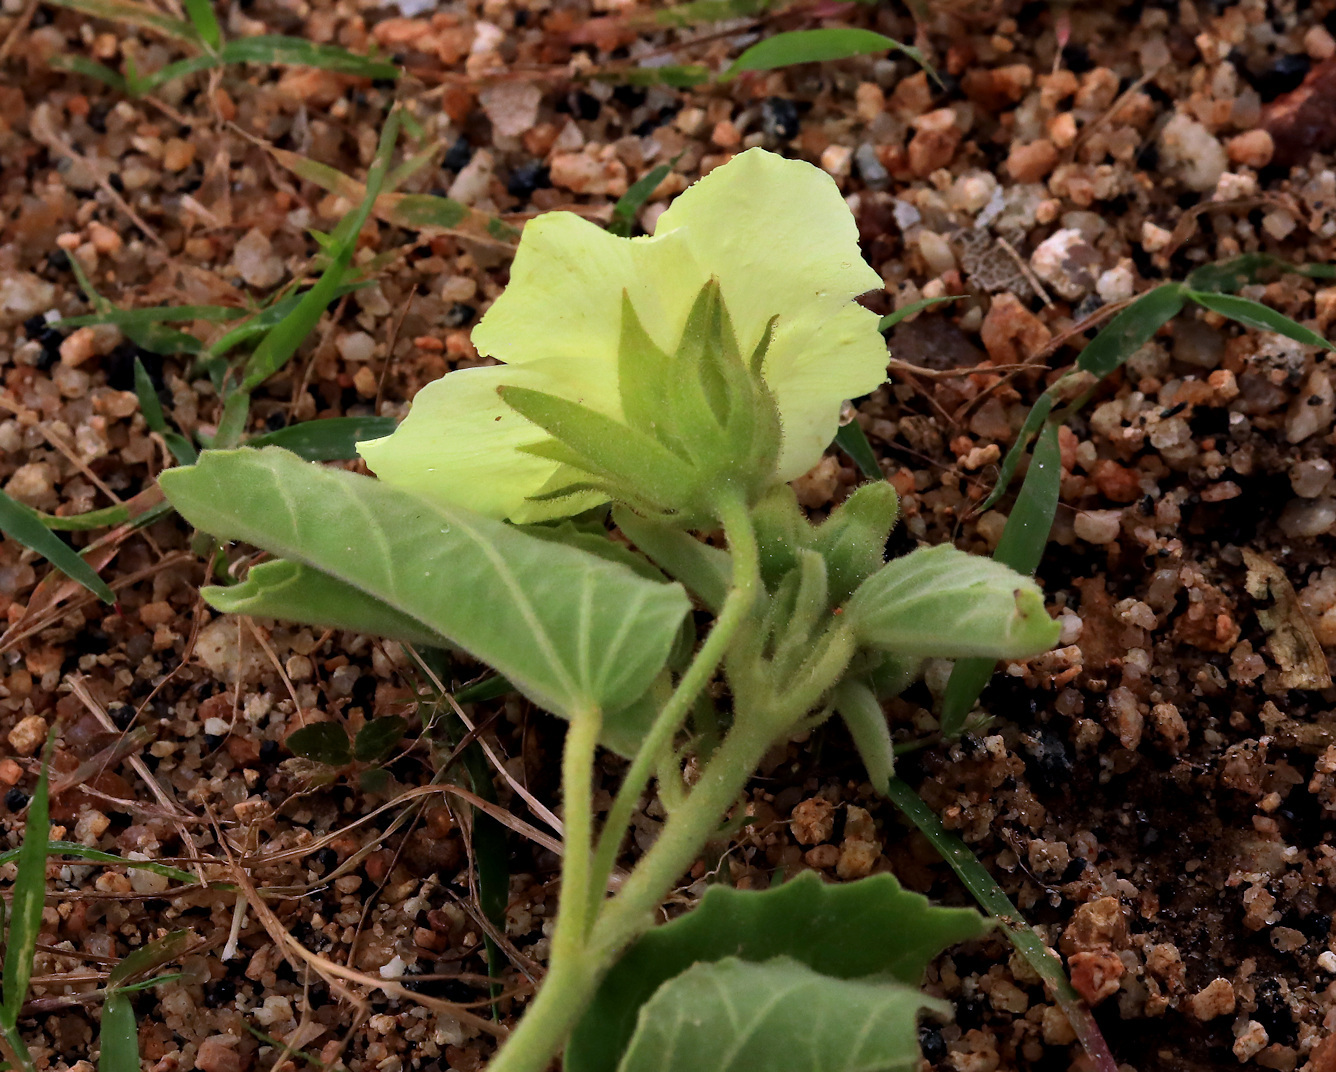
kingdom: Plantae
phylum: Tracheophyta
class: Magnoliopsida
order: Malvales
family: Malvaceae
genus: Pavonia
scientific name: Pavonia elegans
